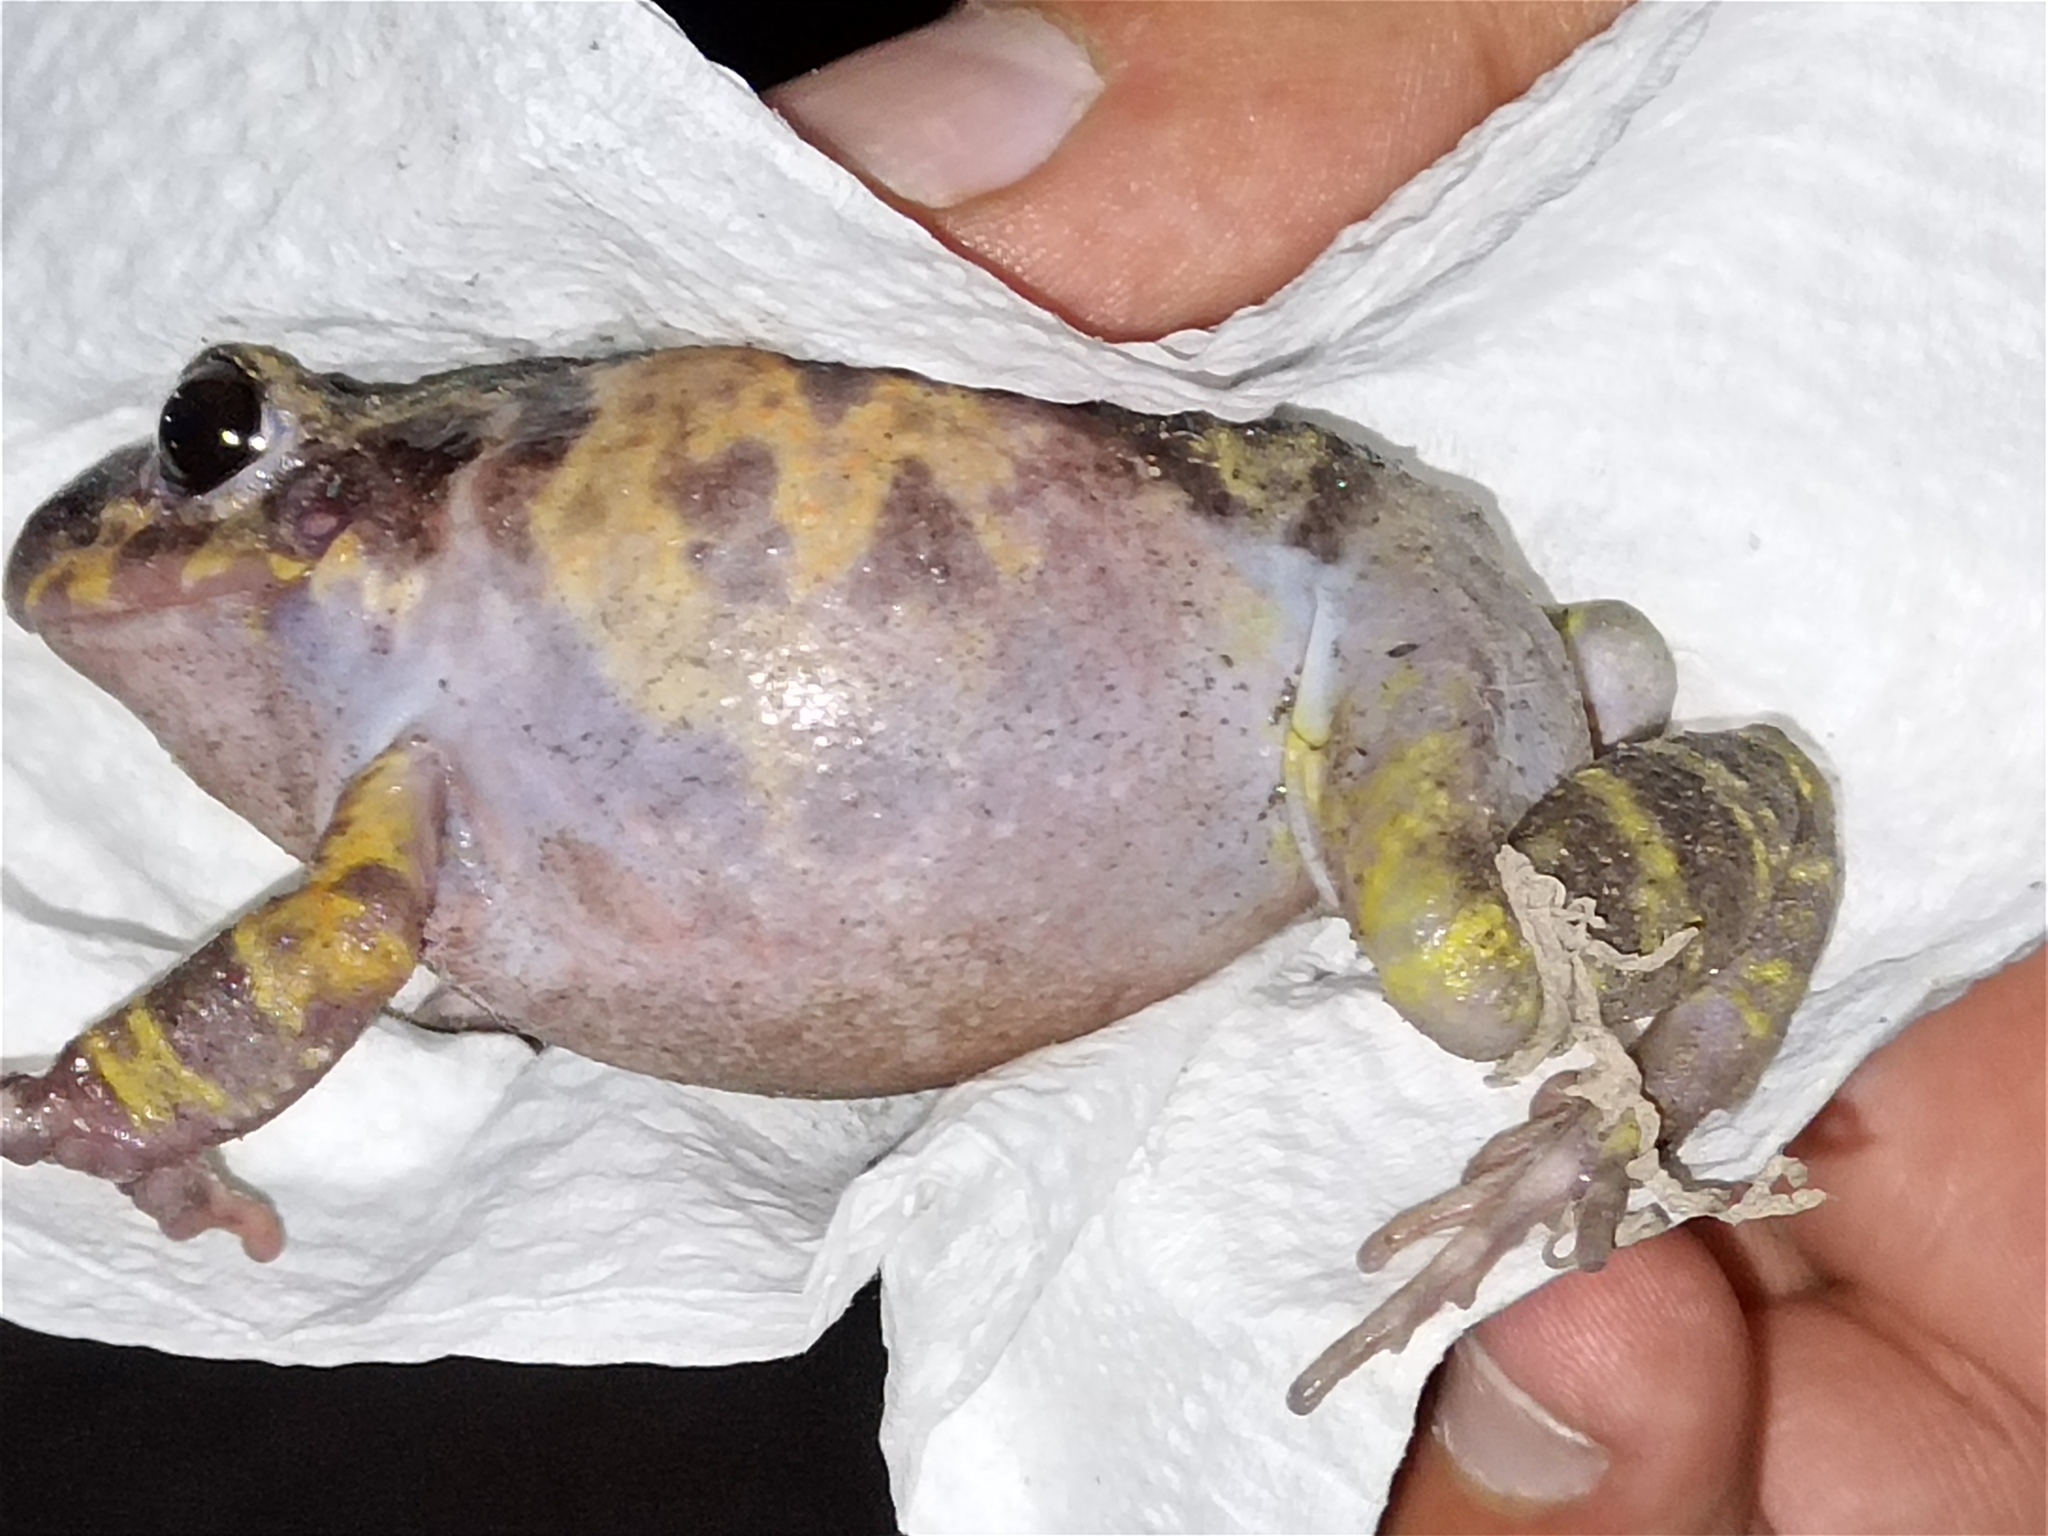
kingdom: Animalia
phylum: Chordata
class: Amphibia
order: Anura
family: Craugastoridae
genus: Craugastor
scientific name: Craugastor augusti
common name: Barking frog
